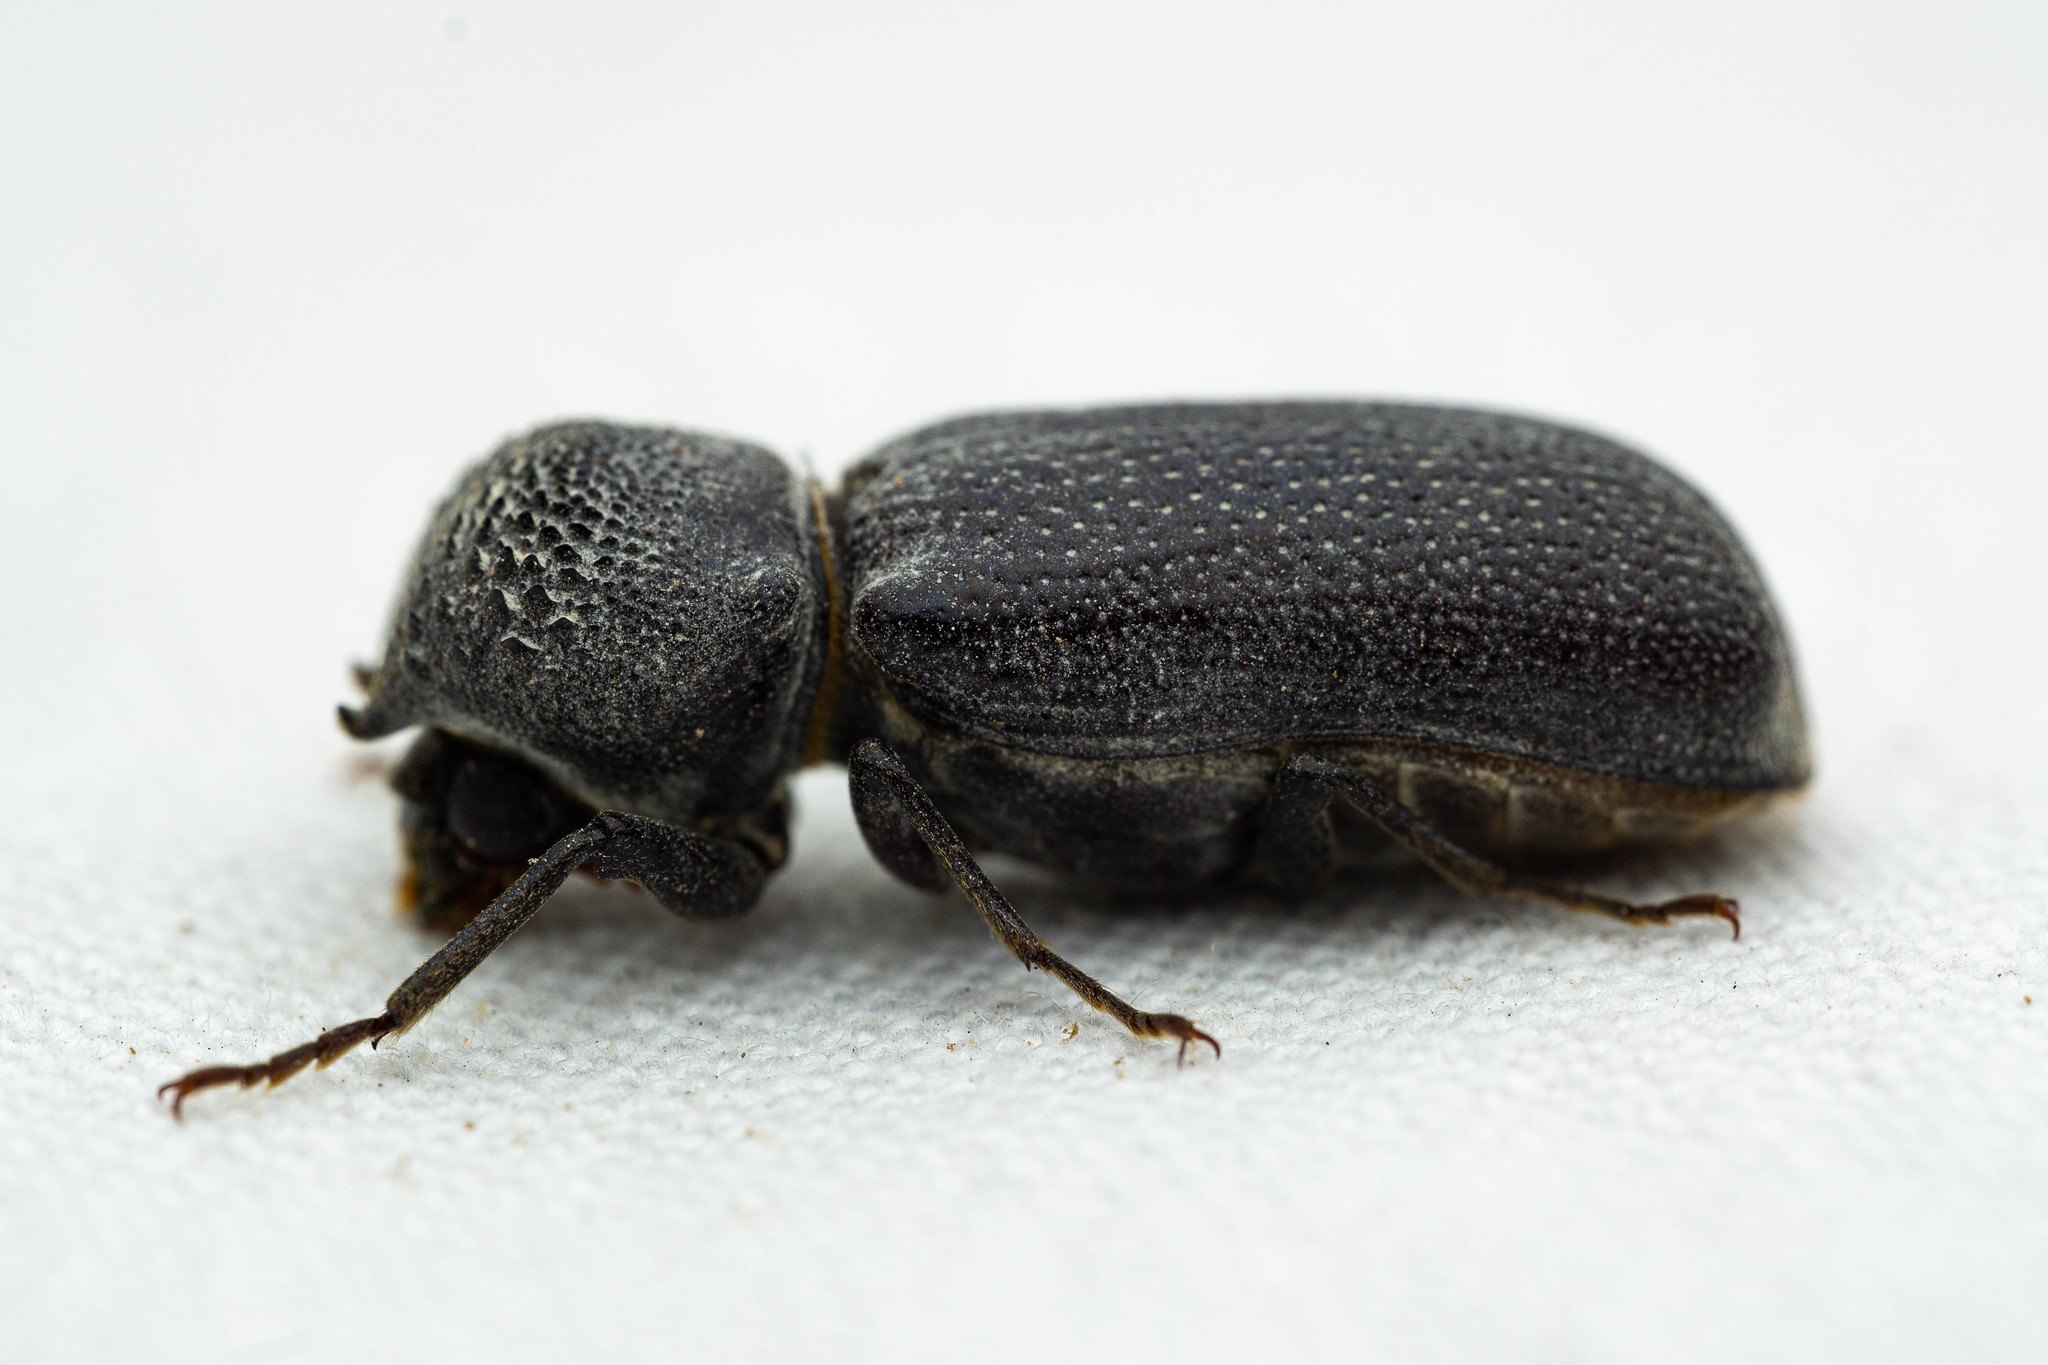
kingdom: Animalia
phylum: Arthropoda
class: Insecta
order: Coleoptera
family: Bostrichidae
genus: Apatides
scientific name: Apatides fortis
